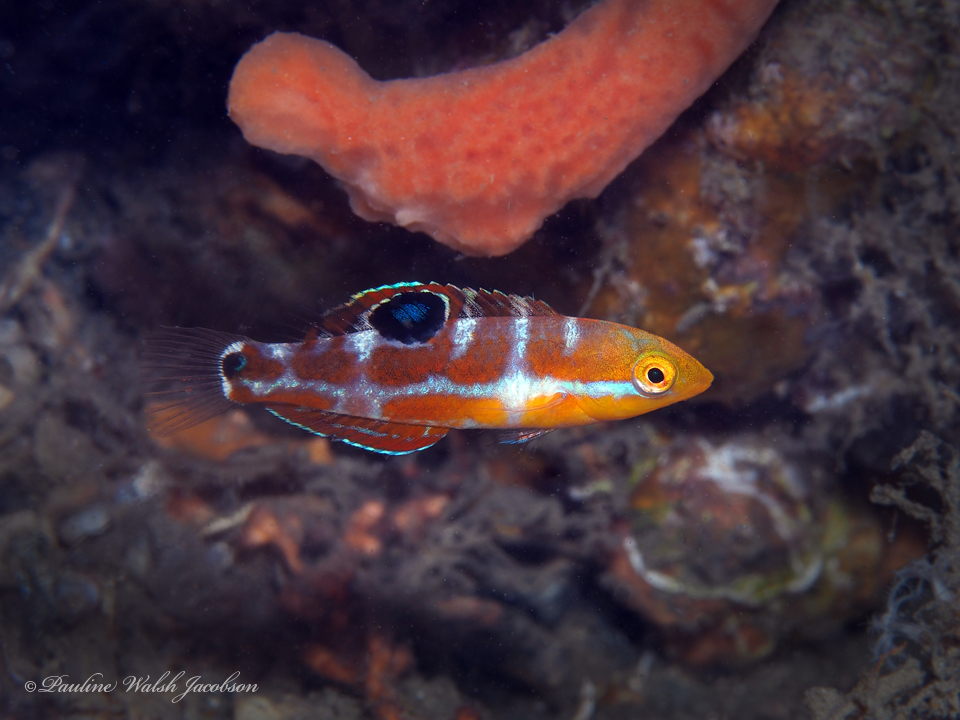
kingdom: Animalia
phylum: Chordata
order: Perciformes
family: Labridae
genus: Halichoeres
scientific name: Halichoeres radiatus
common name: Puddingwife
